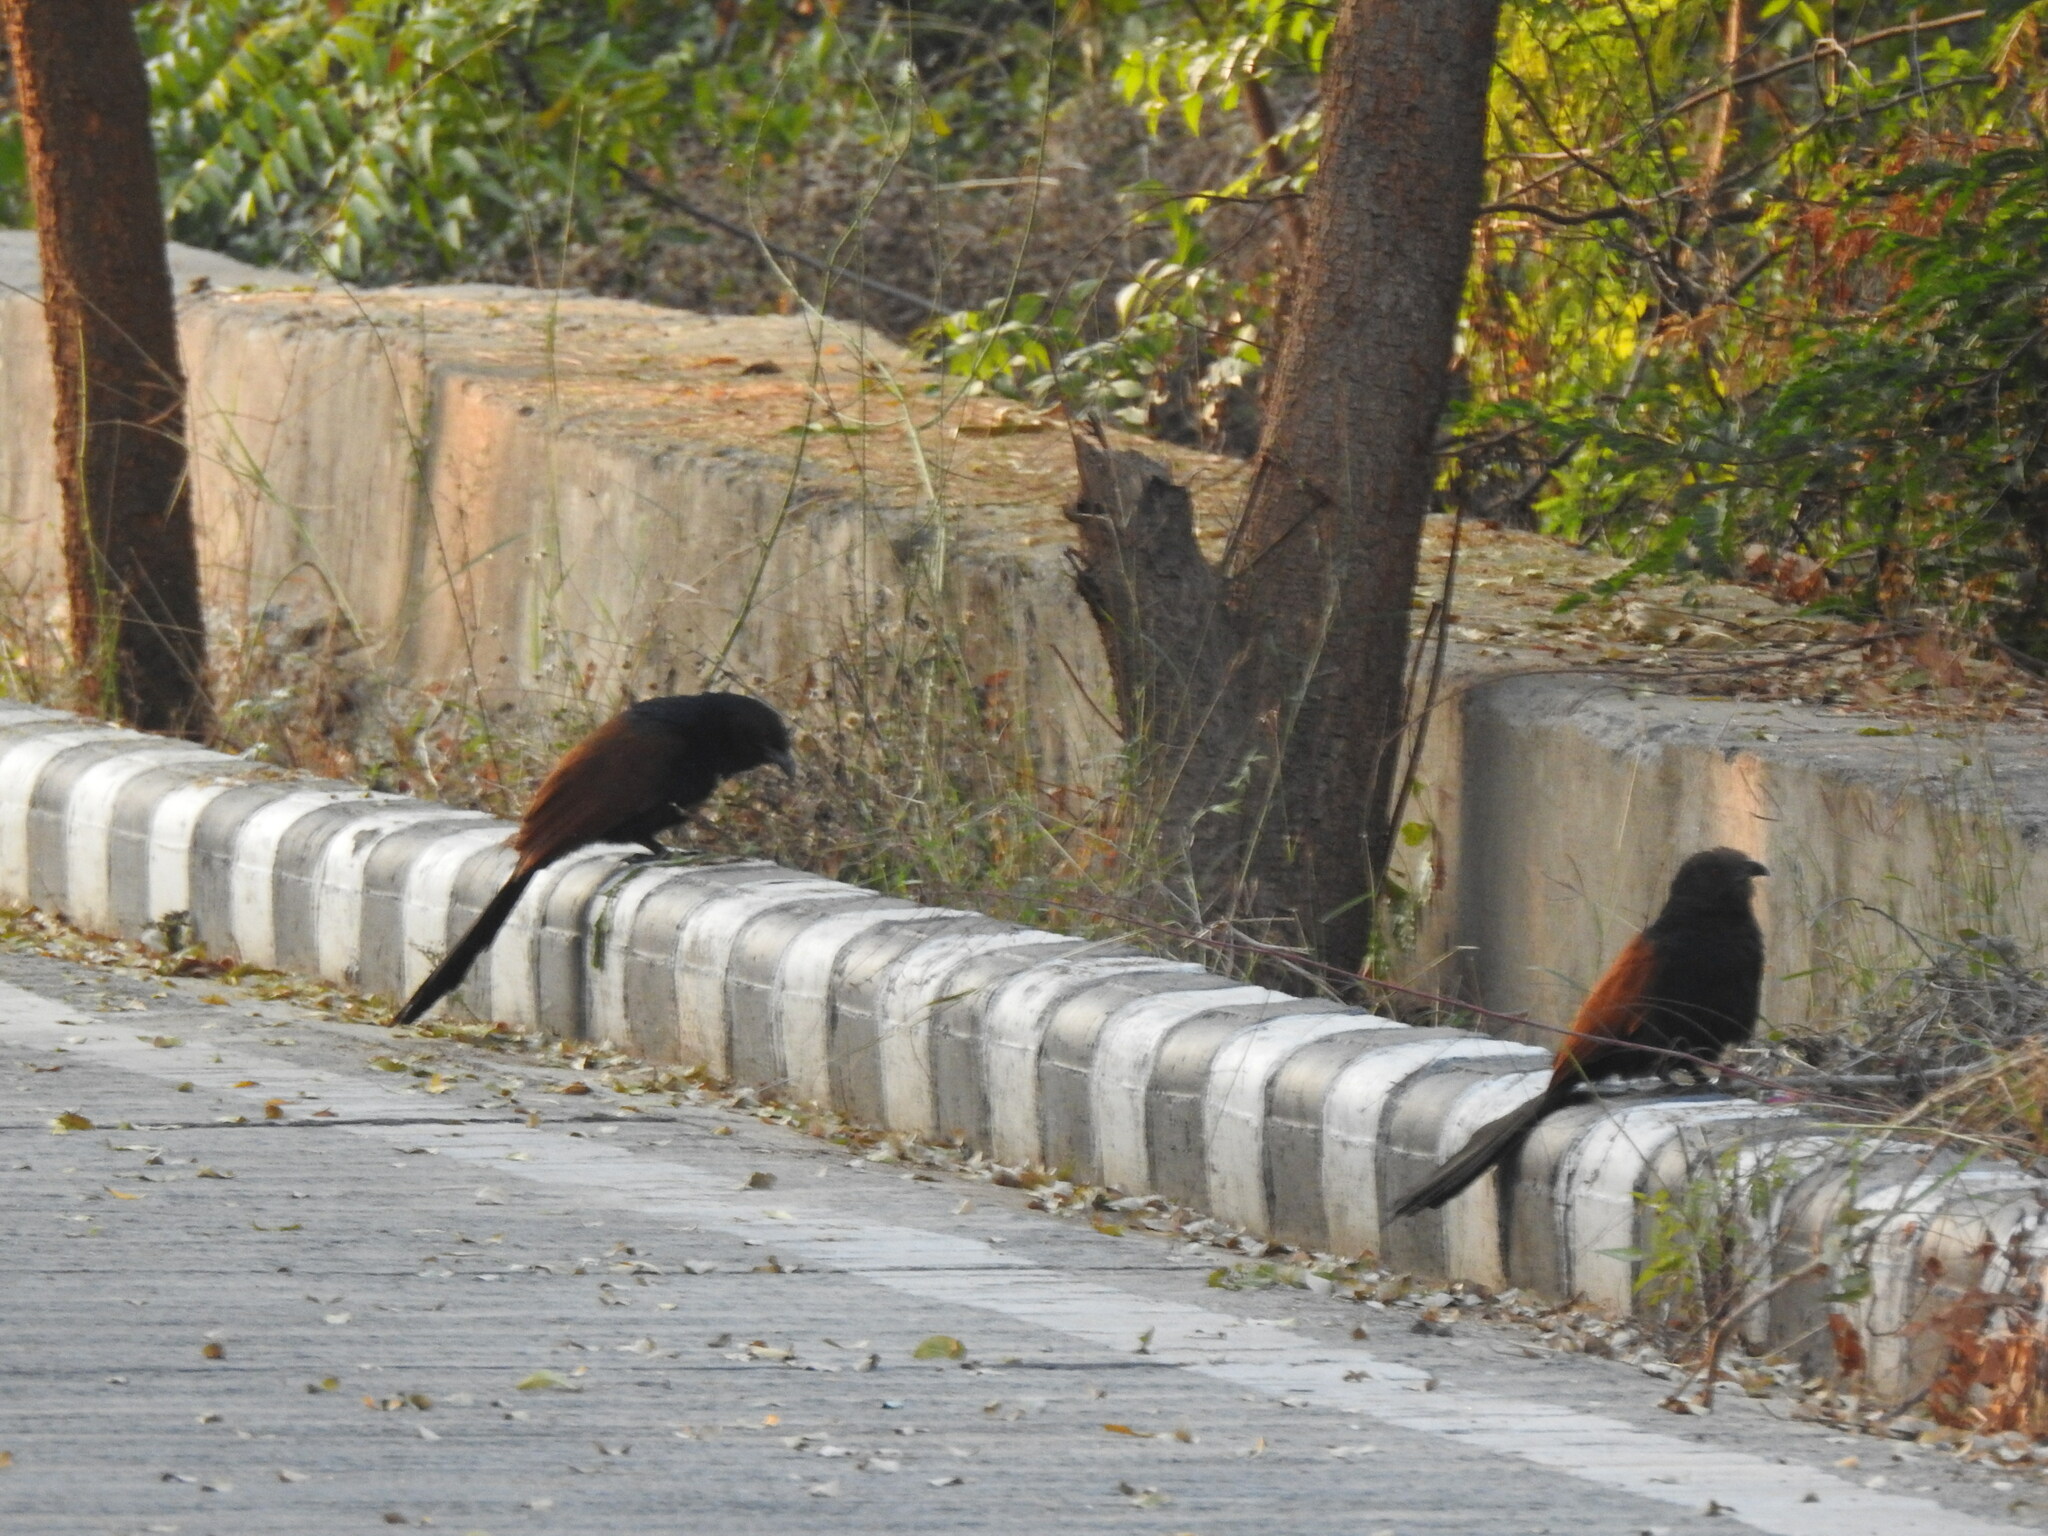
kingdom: Animalia
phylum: Chordata
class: Aves
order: Cuculiformes
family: Cuculidae
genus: Centropus
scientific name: Centropus sinensis
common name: Greater coucal
